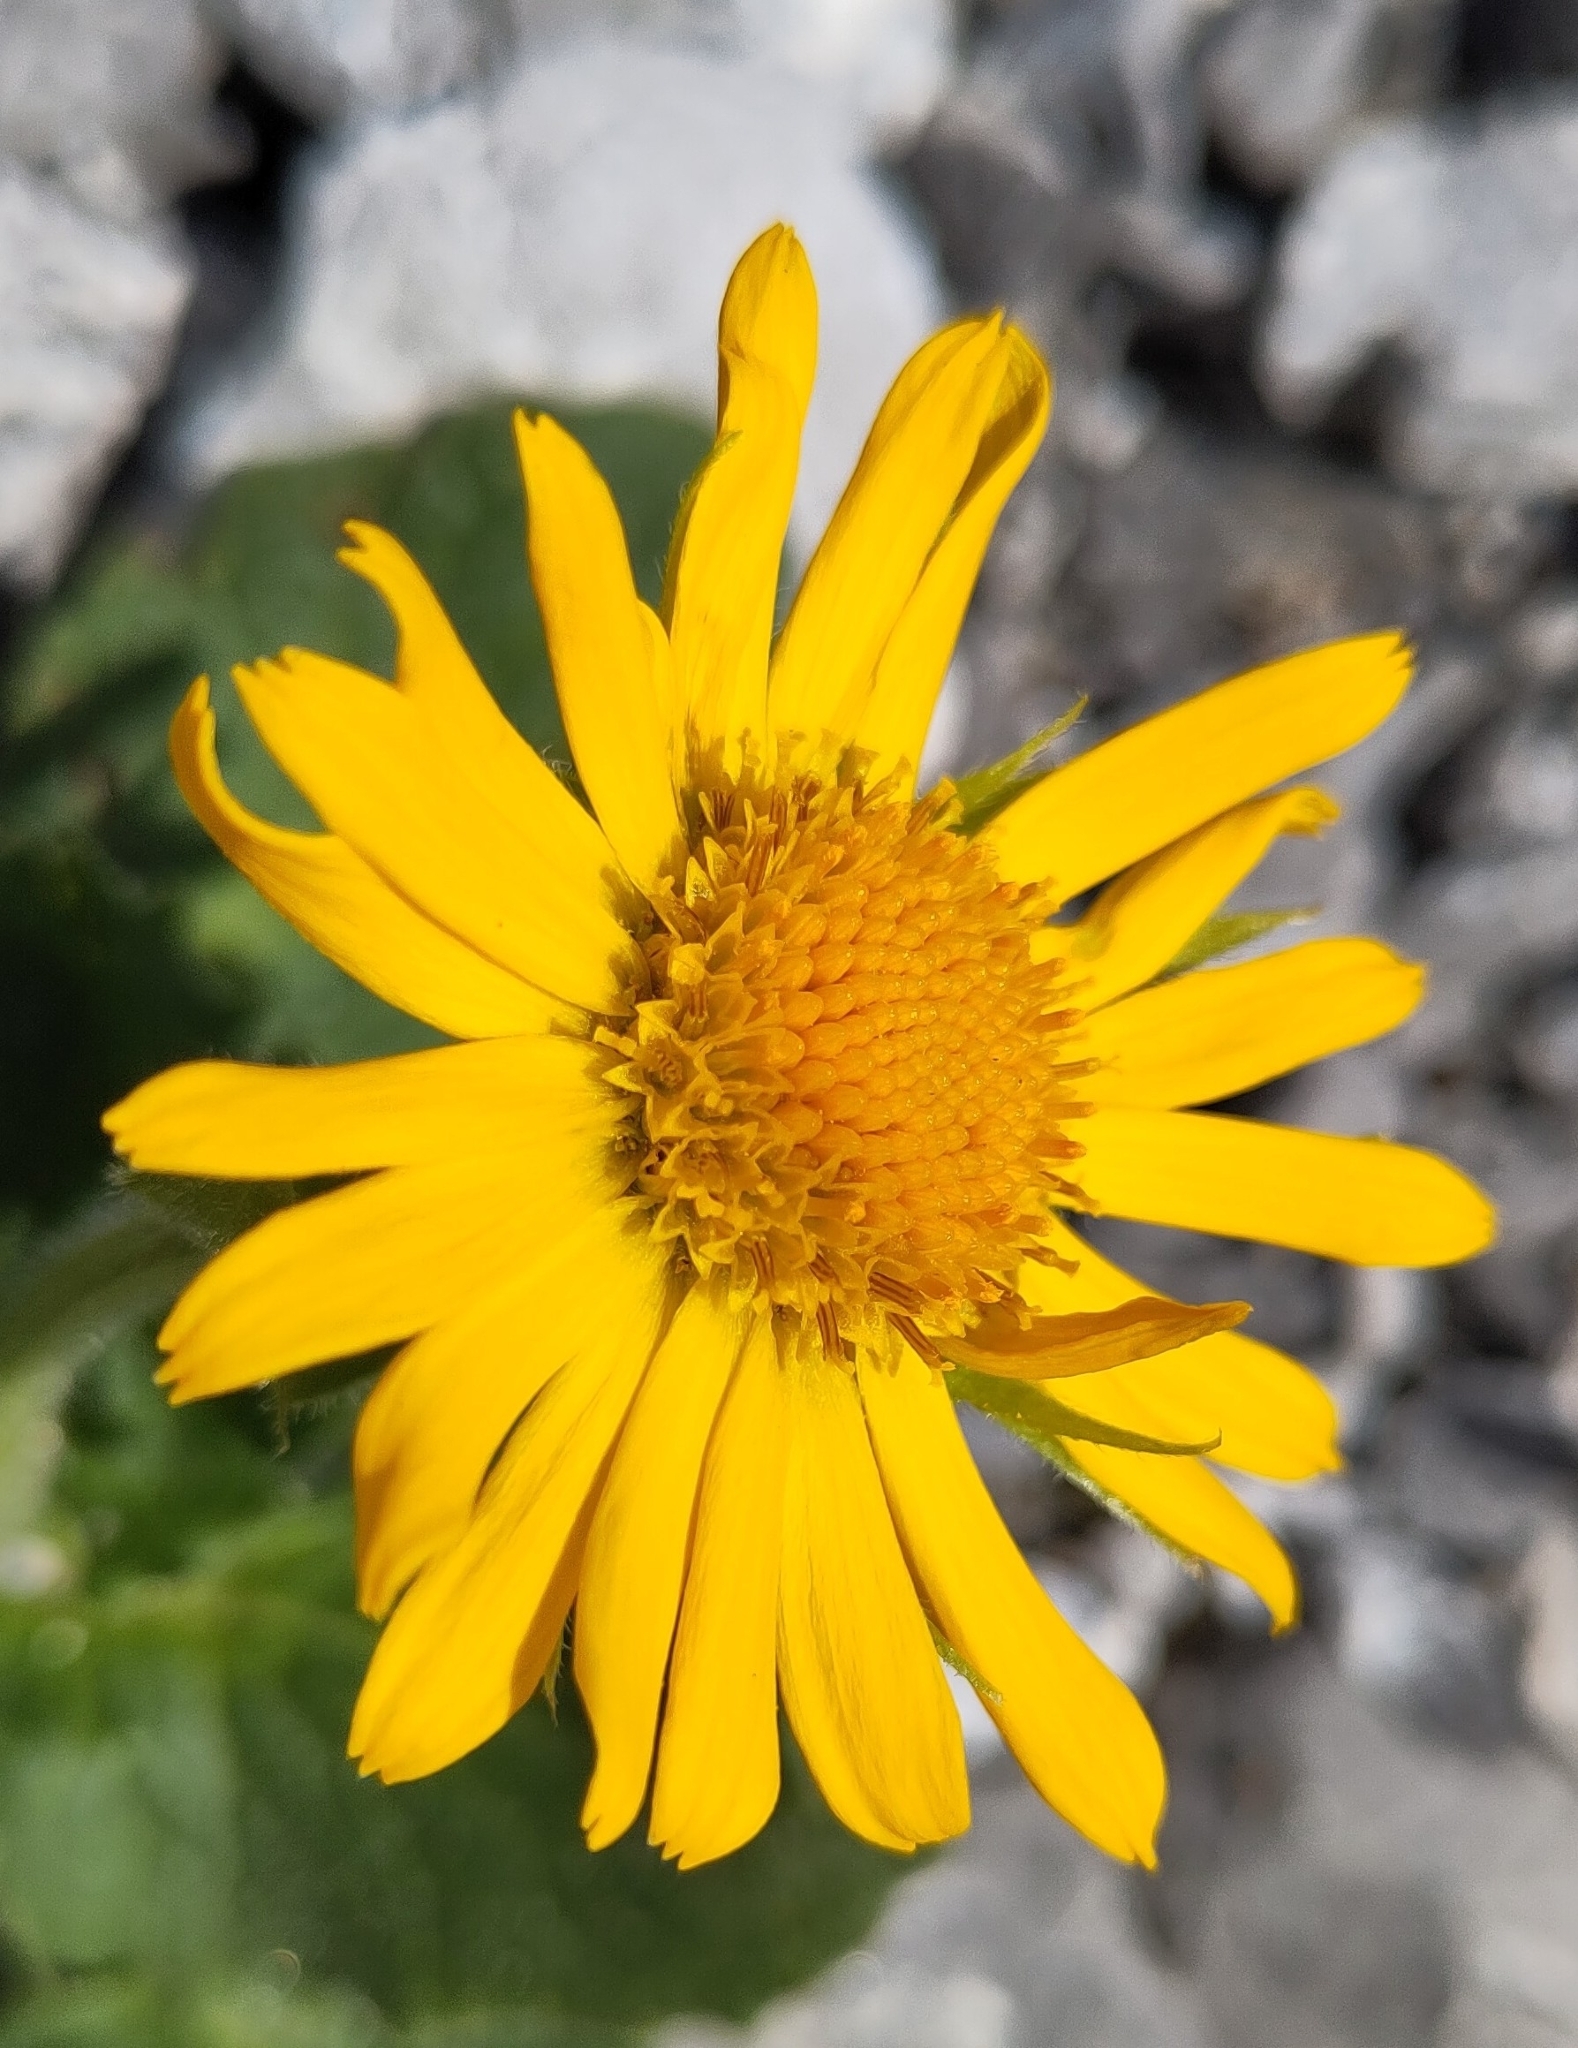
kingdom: Plantae
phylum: Tracheophyta
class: Magnoliopsida
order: Asterales
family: Asteraceae
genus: Doronicum
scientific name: Doronicum grandiflorum
